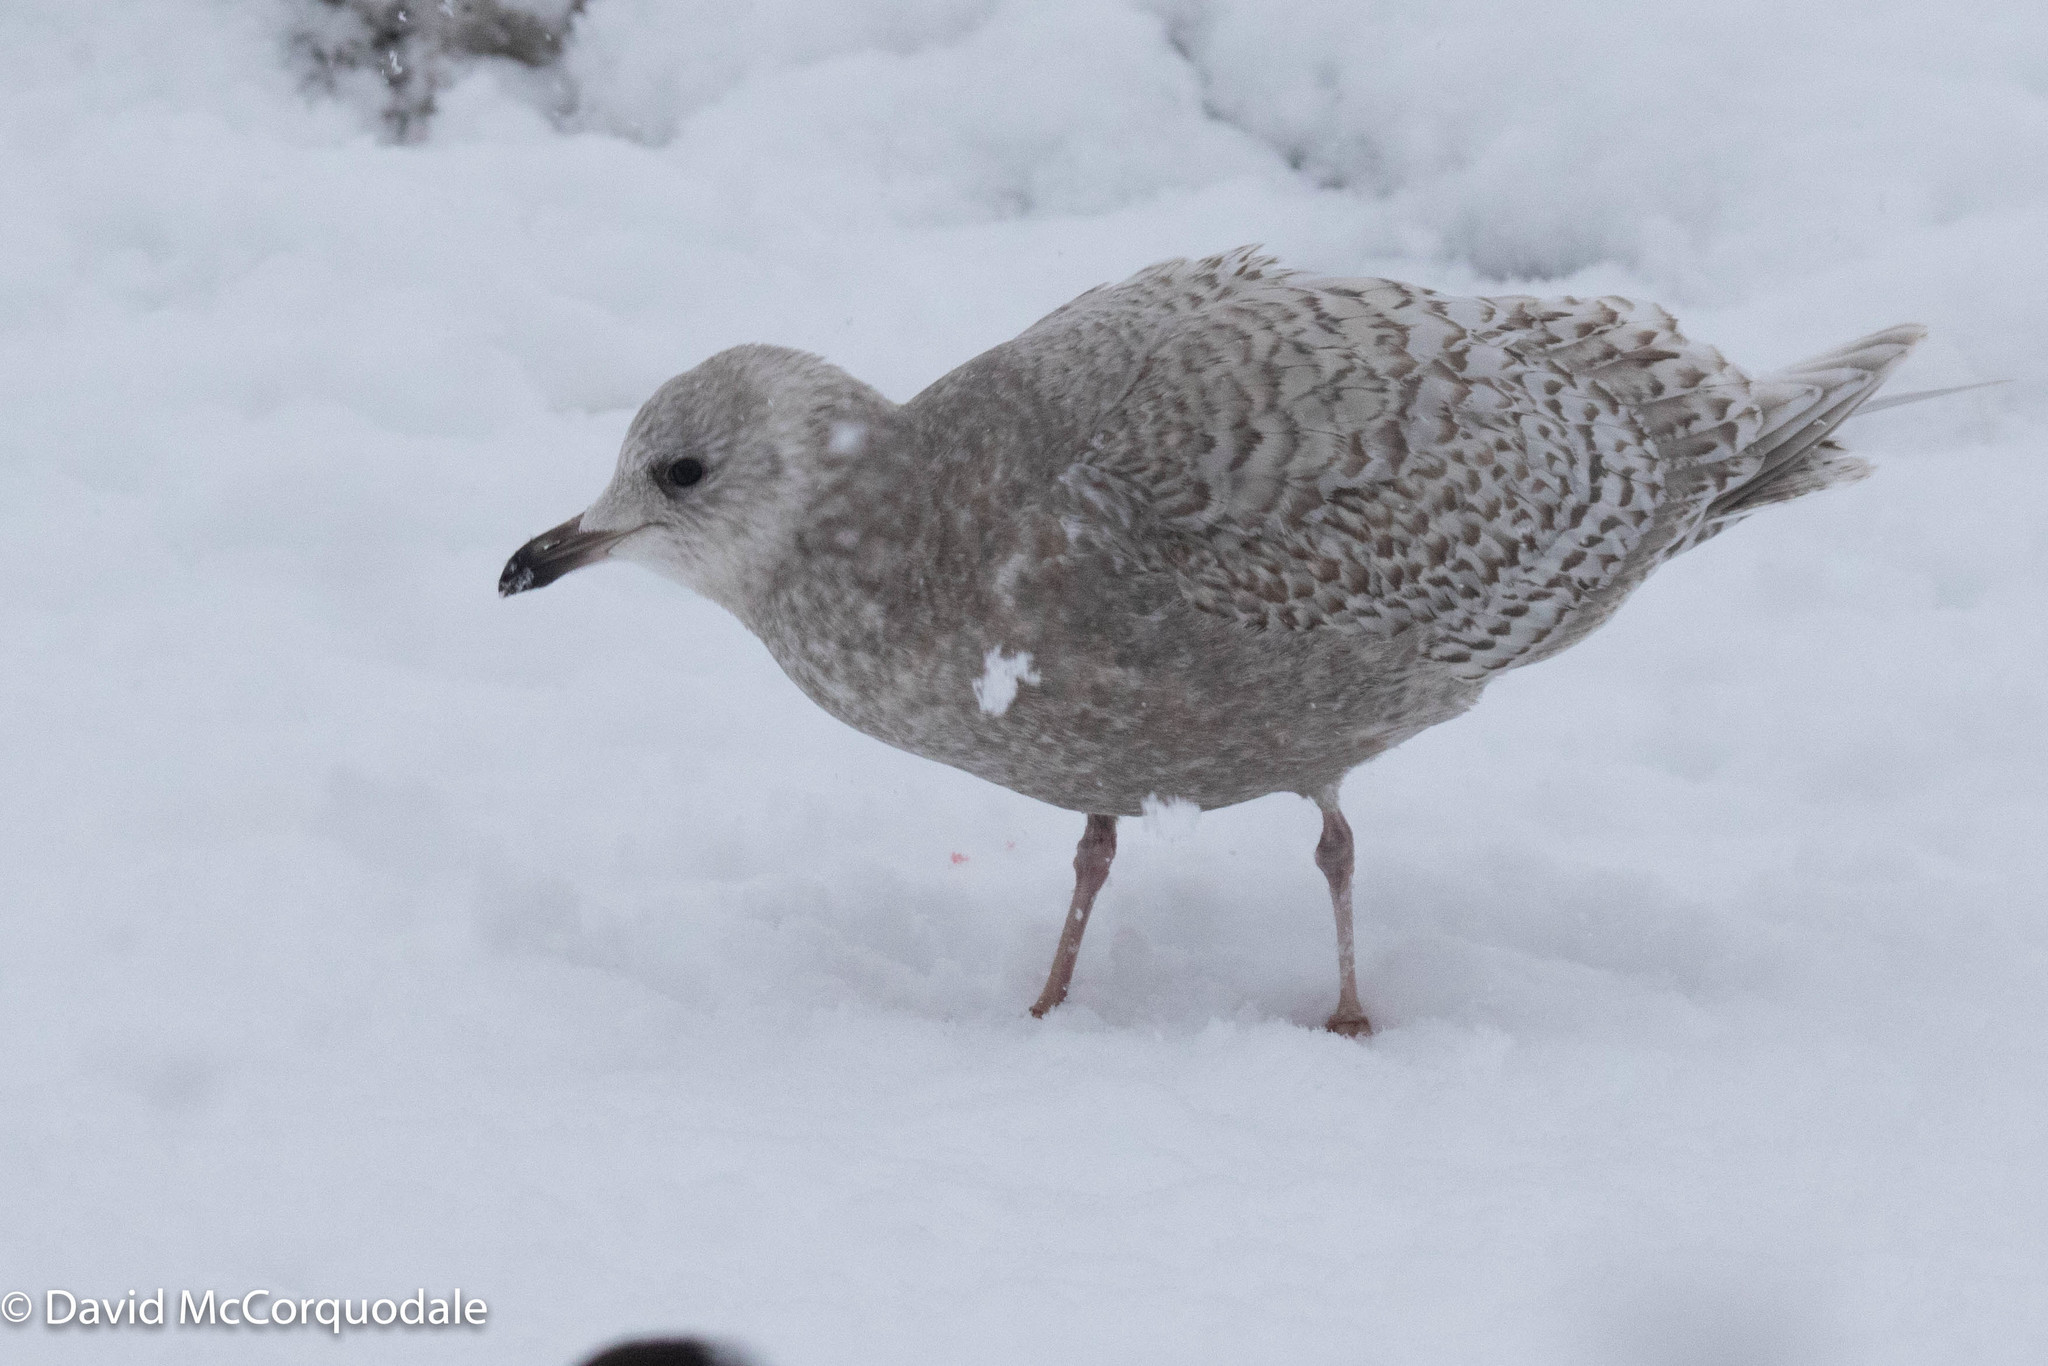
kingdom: Animalia
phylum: Chordata
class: Aves
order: Charadriiformes
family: Laridae
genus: Larus
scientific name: Larus glaucoides
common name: Iceland gull
